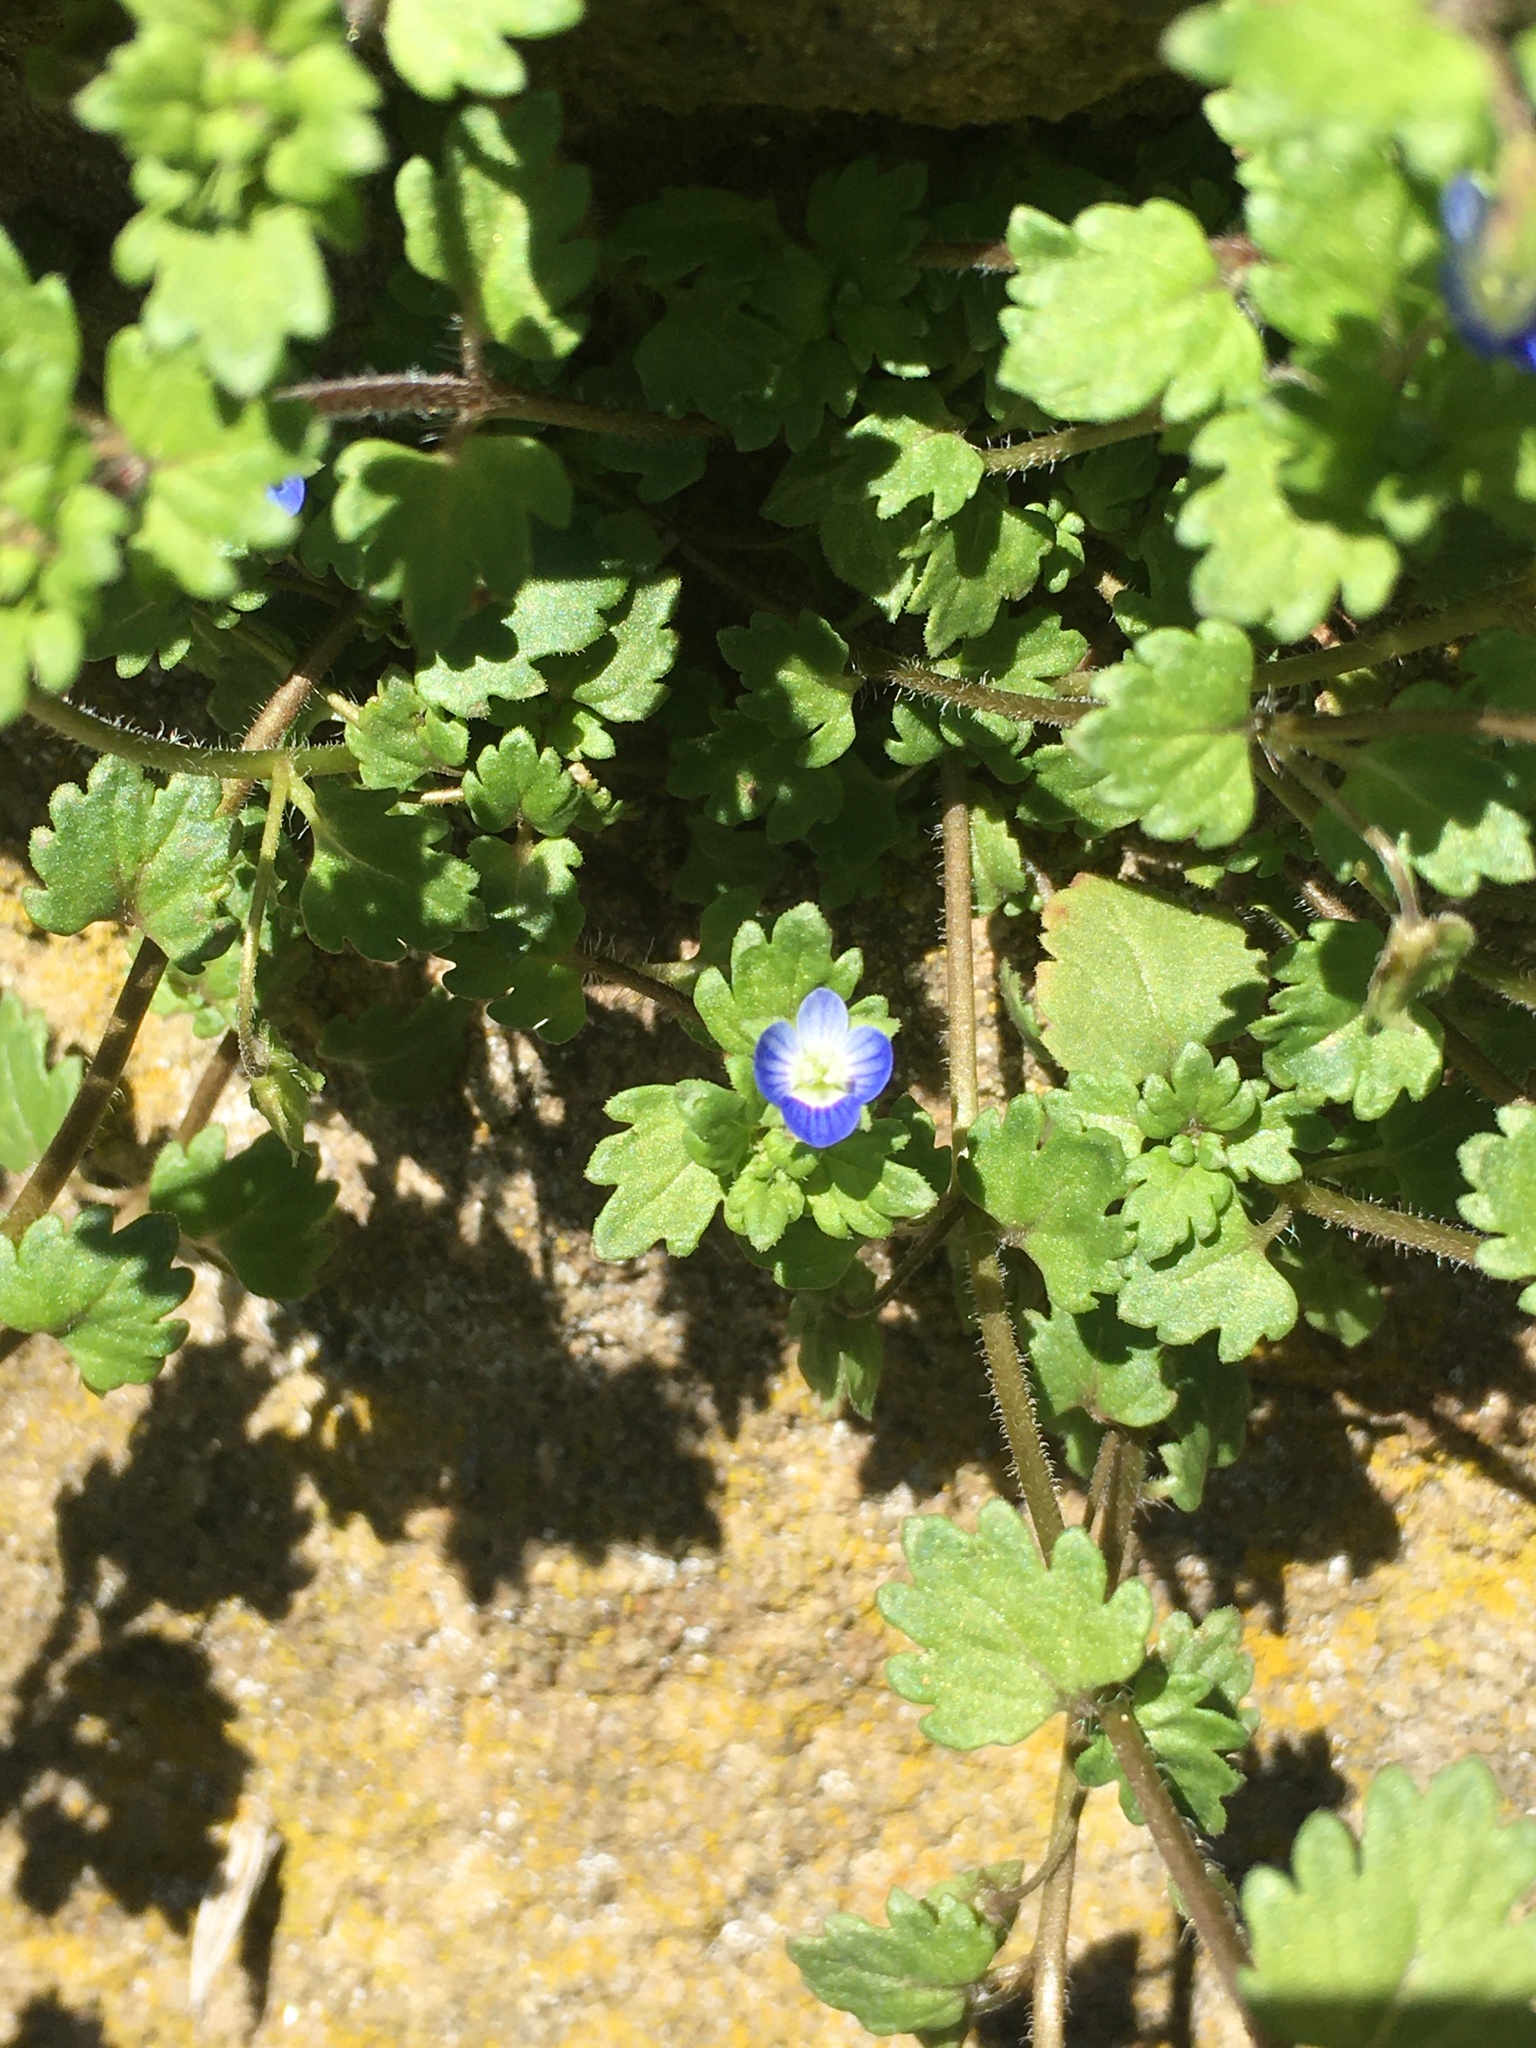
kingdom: Plantae
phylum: Tracheophyta
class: Magnoliopsida
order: Lamiales
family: Plantaginaceae
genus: Veronica
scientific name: Veronica polita
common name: Grey field-speedwell
